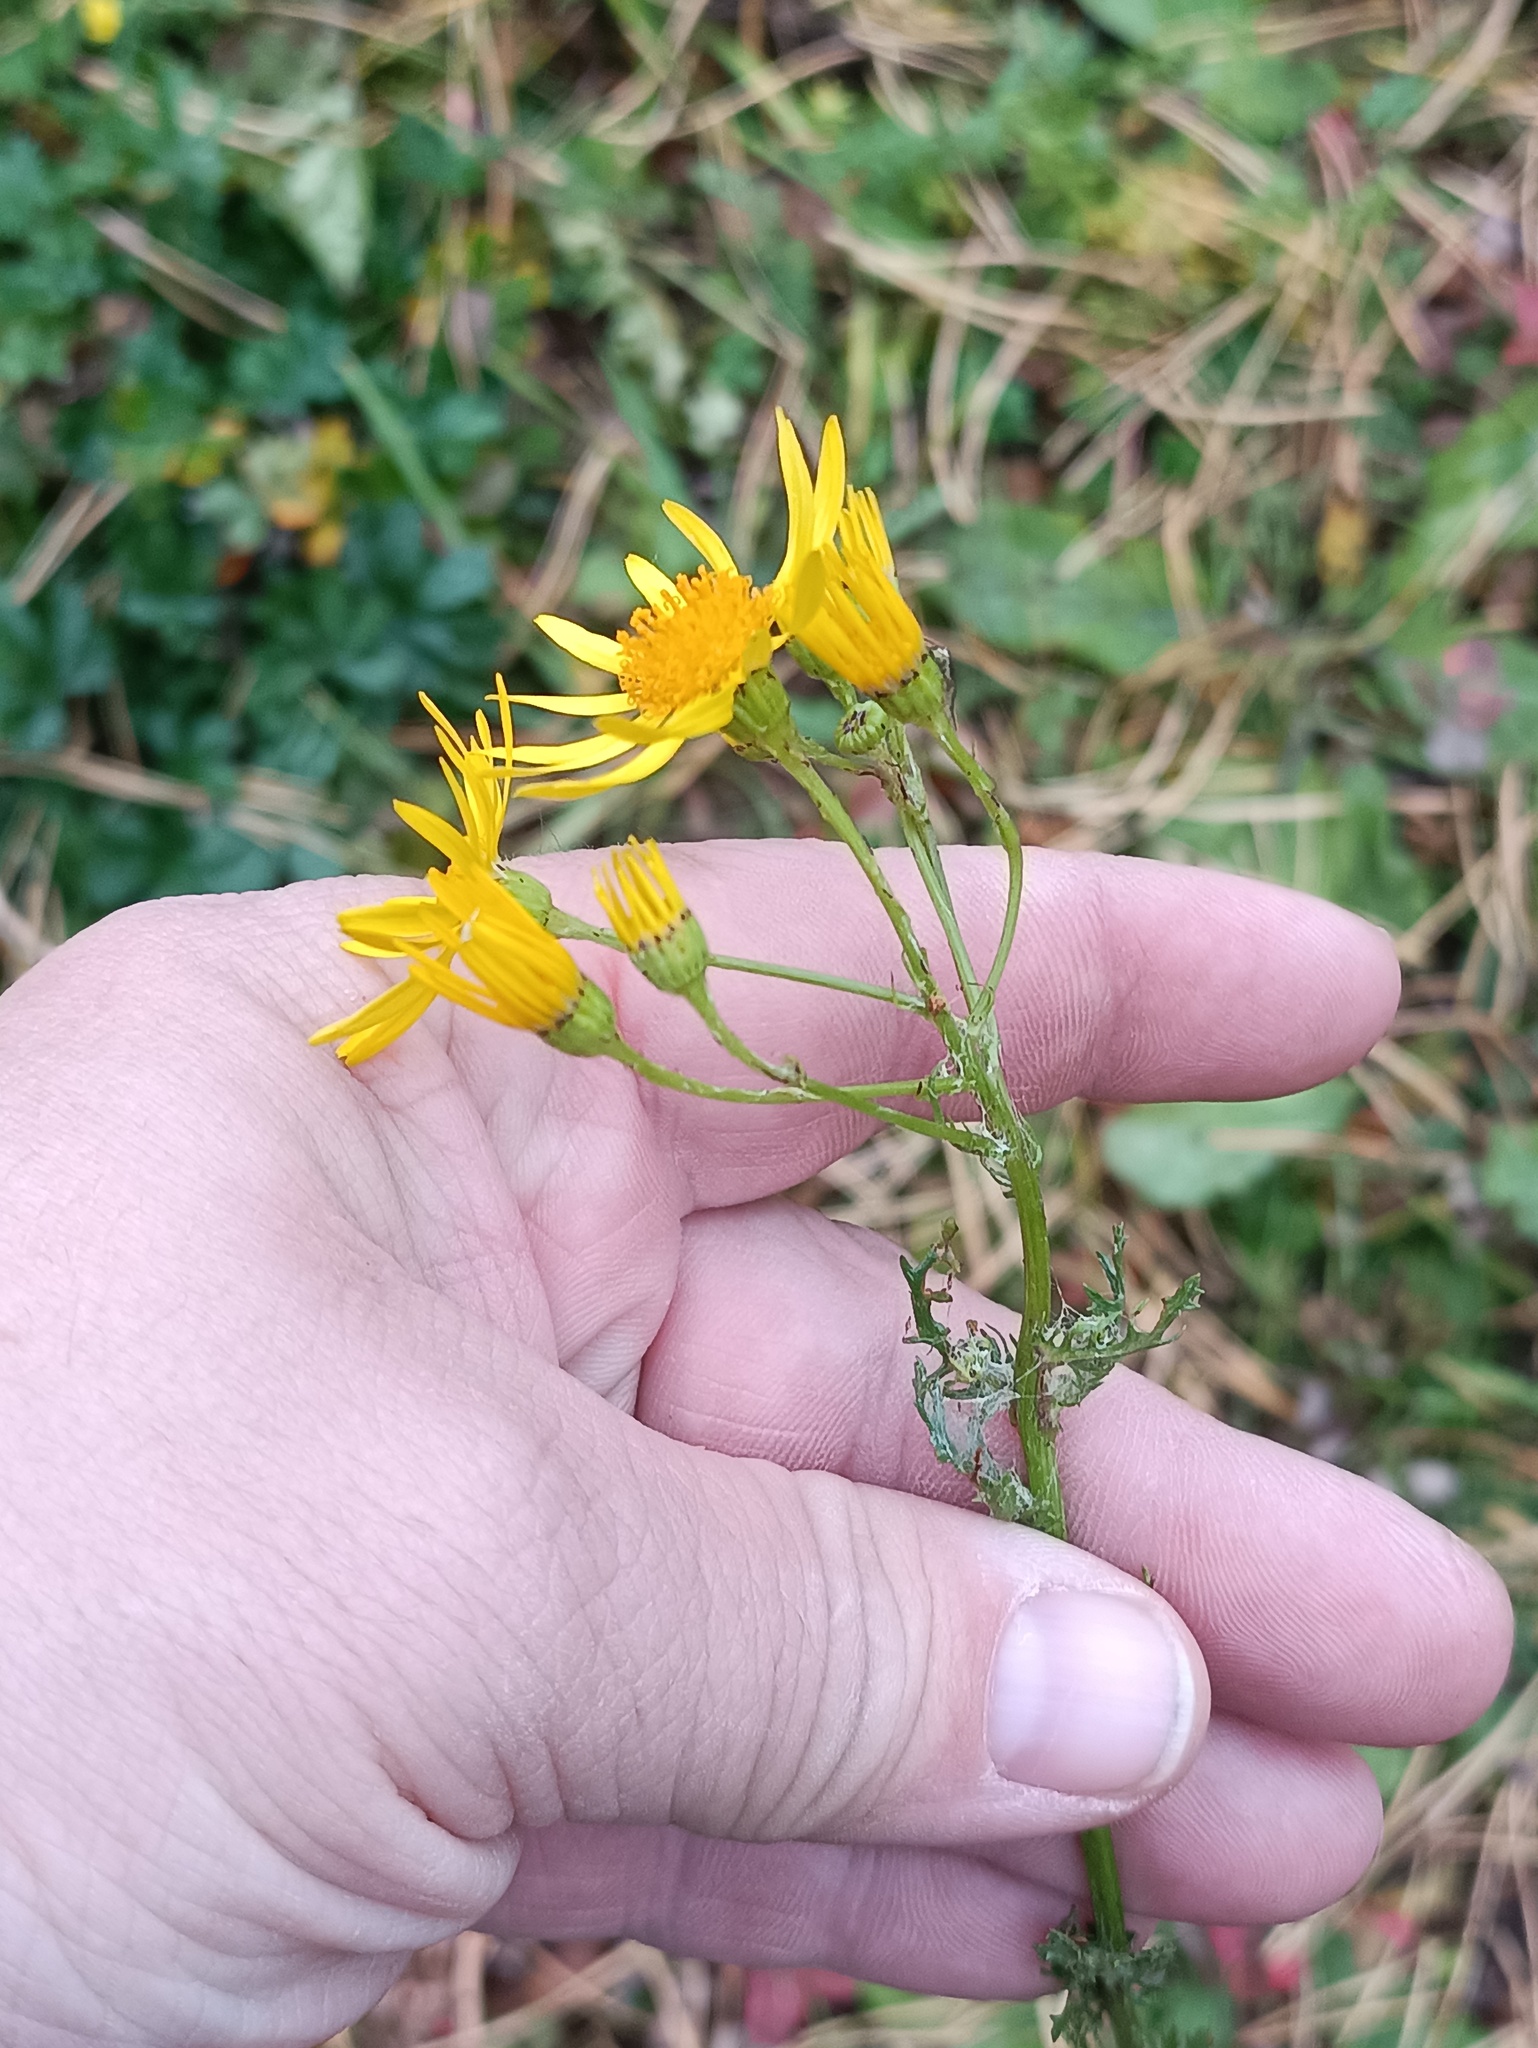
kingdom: Plantae
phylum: Tracheophyta
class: Magnoliopsida
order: Asterales
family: Asteraceae
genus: Jacobaea
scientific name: Jacobaea vulgaris
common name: Stinking willie
